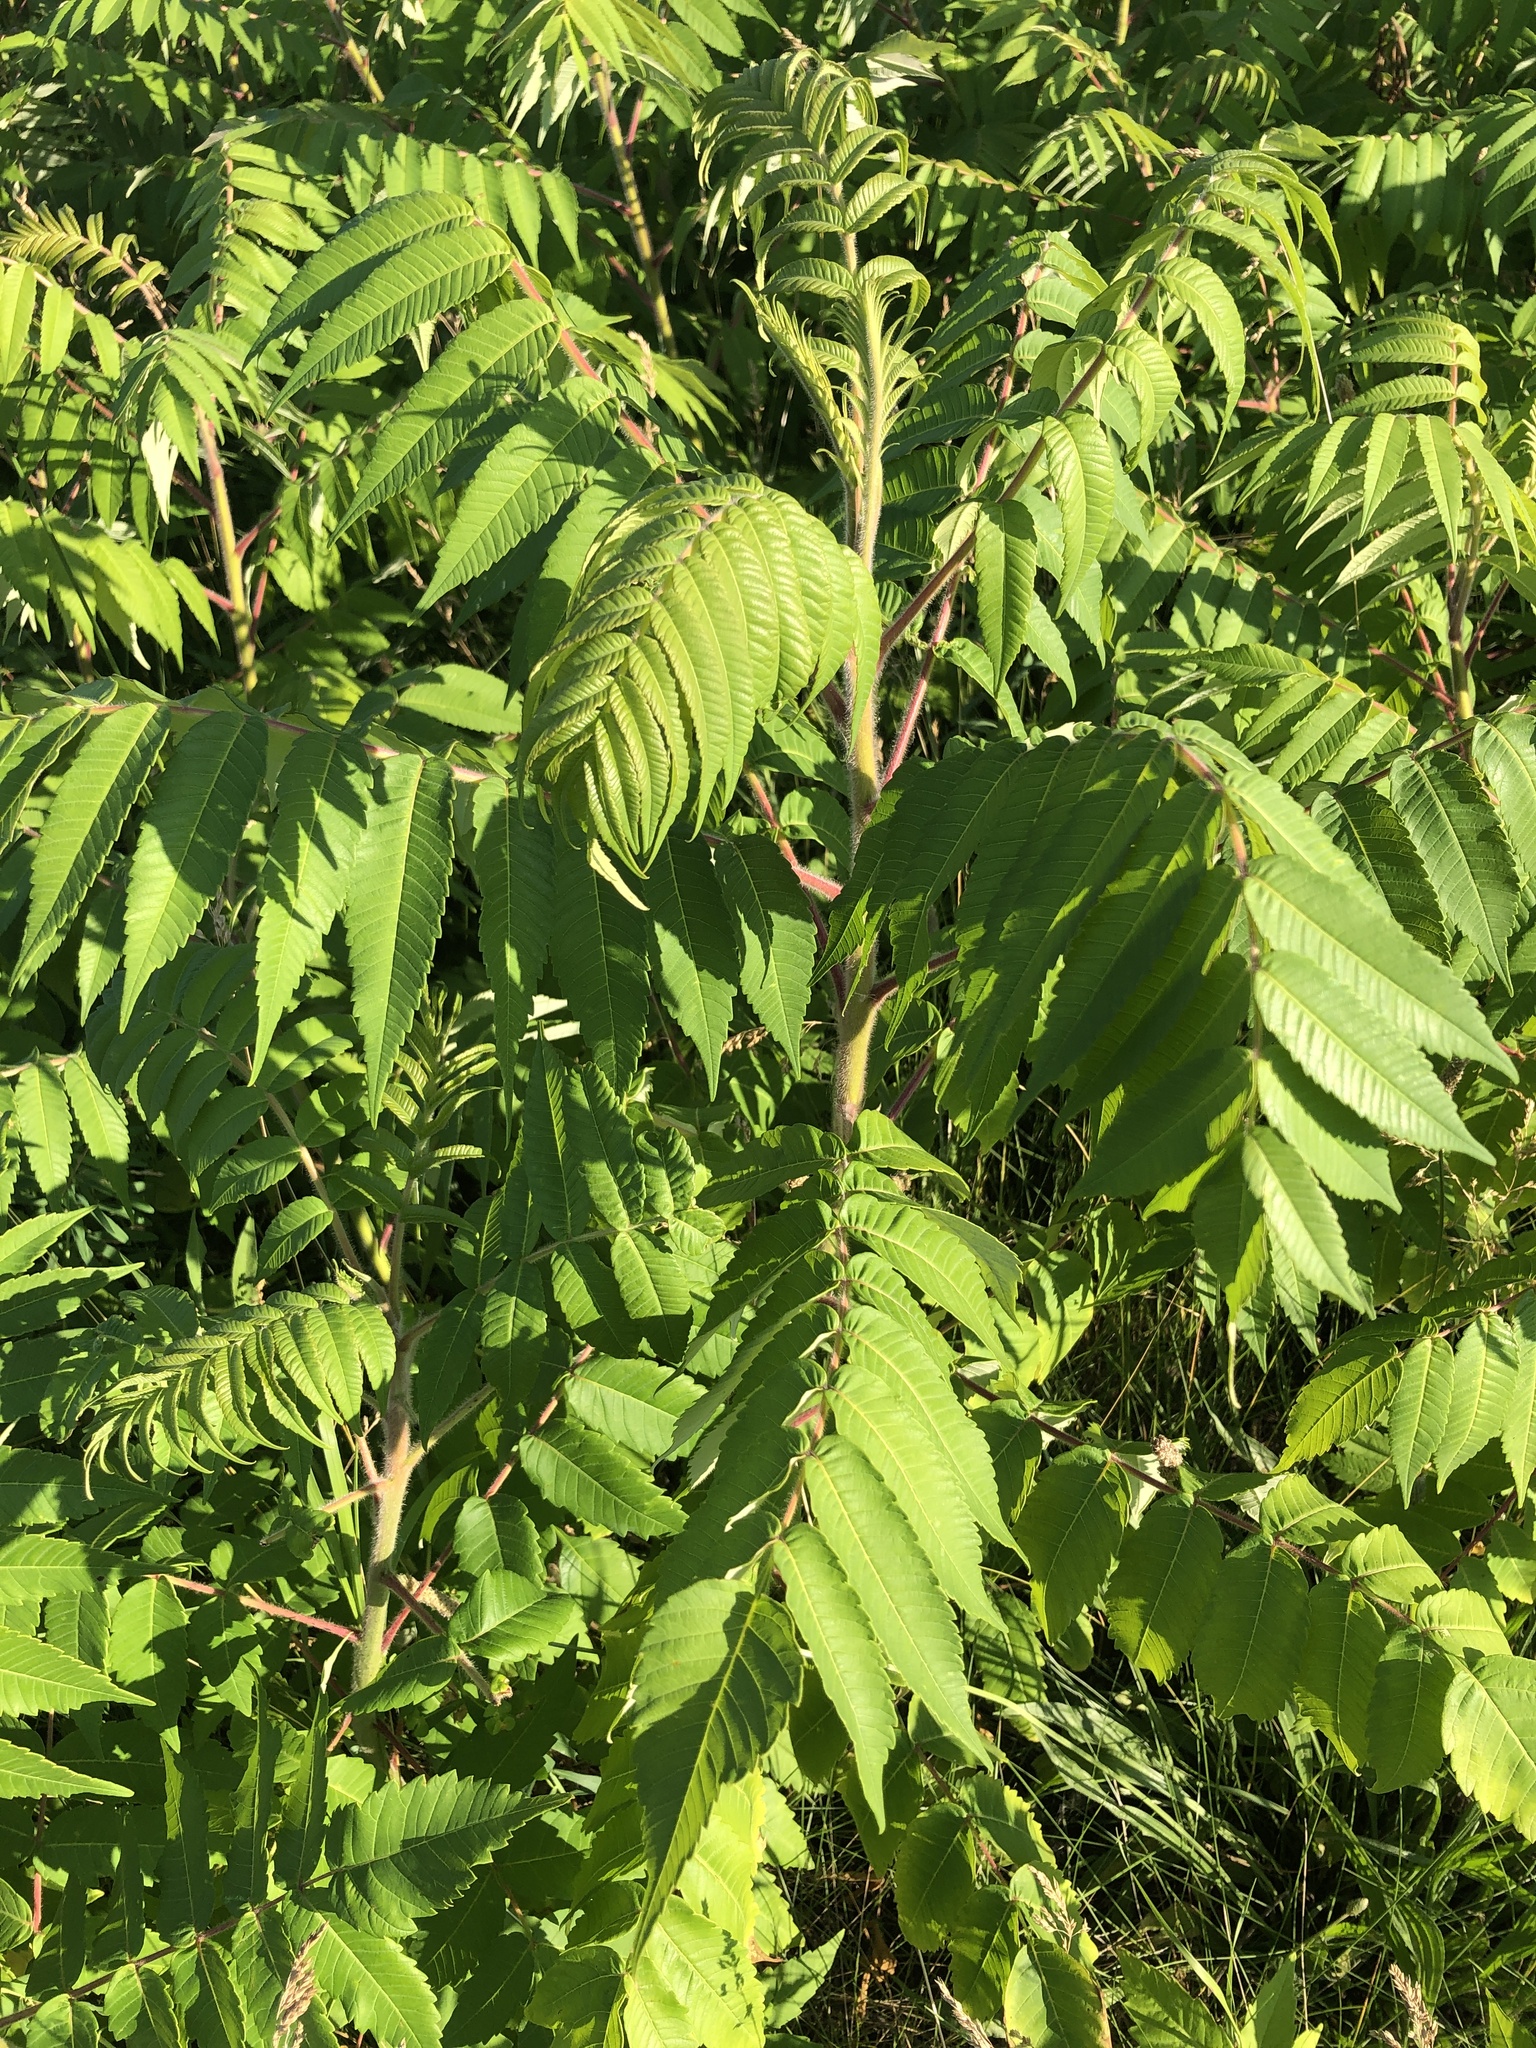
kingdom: Plantae
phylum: Tracheophyta
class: Magnoliopsida
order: Sapindales
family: Anacardiaceae
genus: Rhus
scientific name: Rhus typhina
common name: Staghorn sumac
